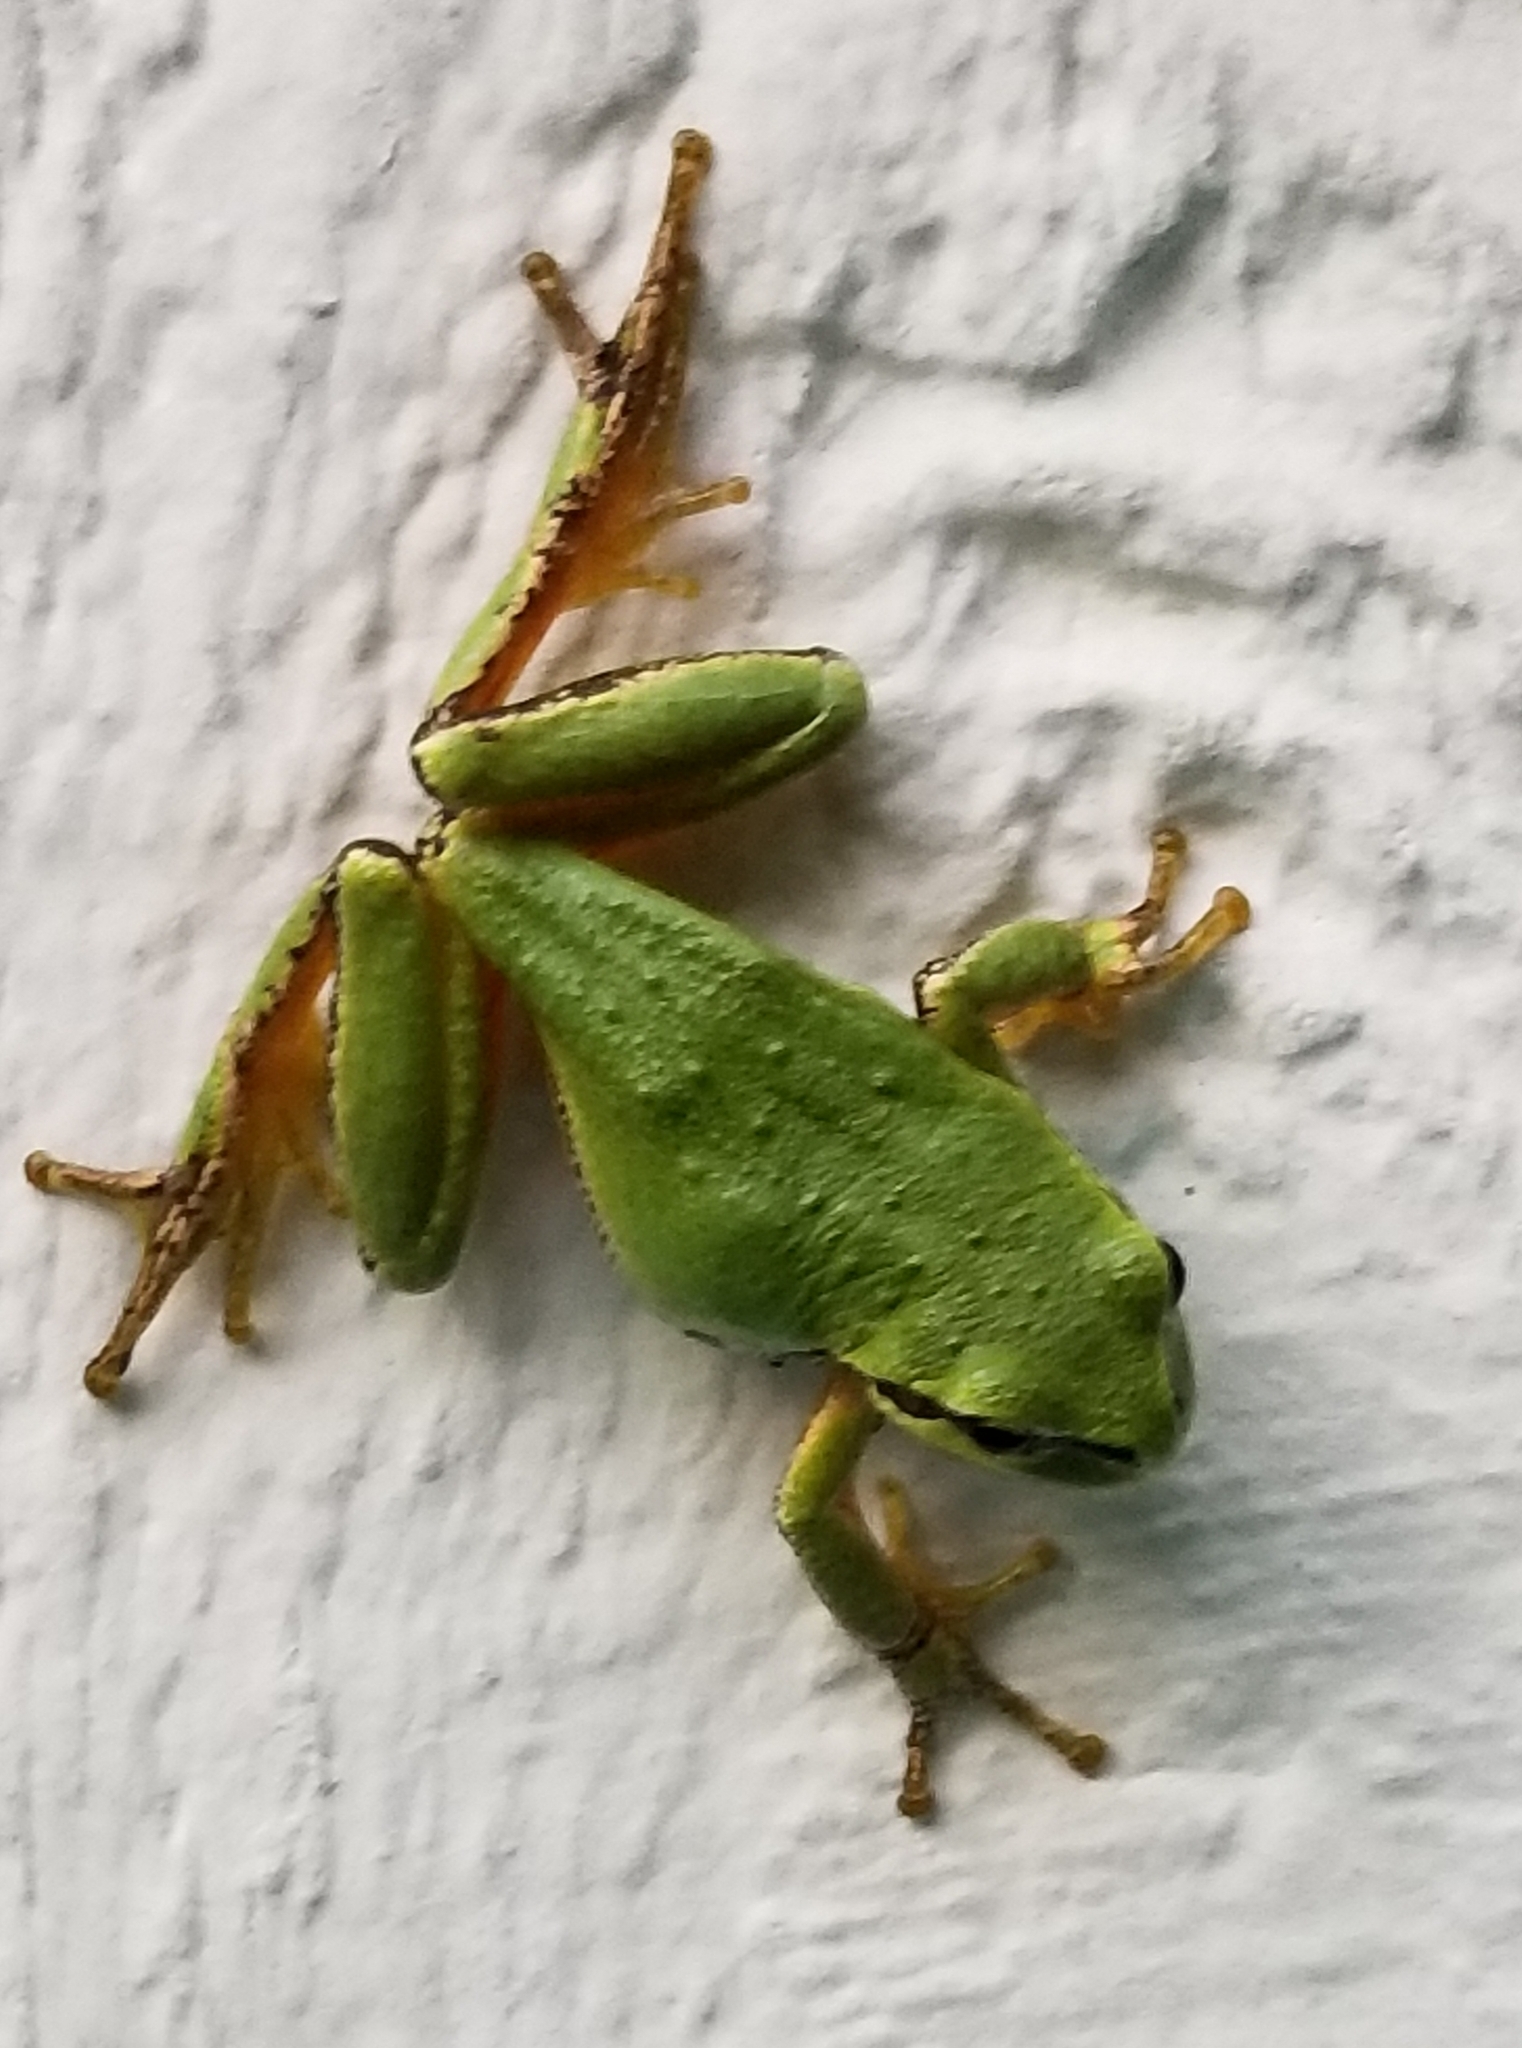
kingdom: Animalia
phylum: Chordata
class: Amphibia
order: Anura
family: Hylidae
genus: Pseudacris
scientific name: Pseudacris regilla
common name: Pacific chorus frog
